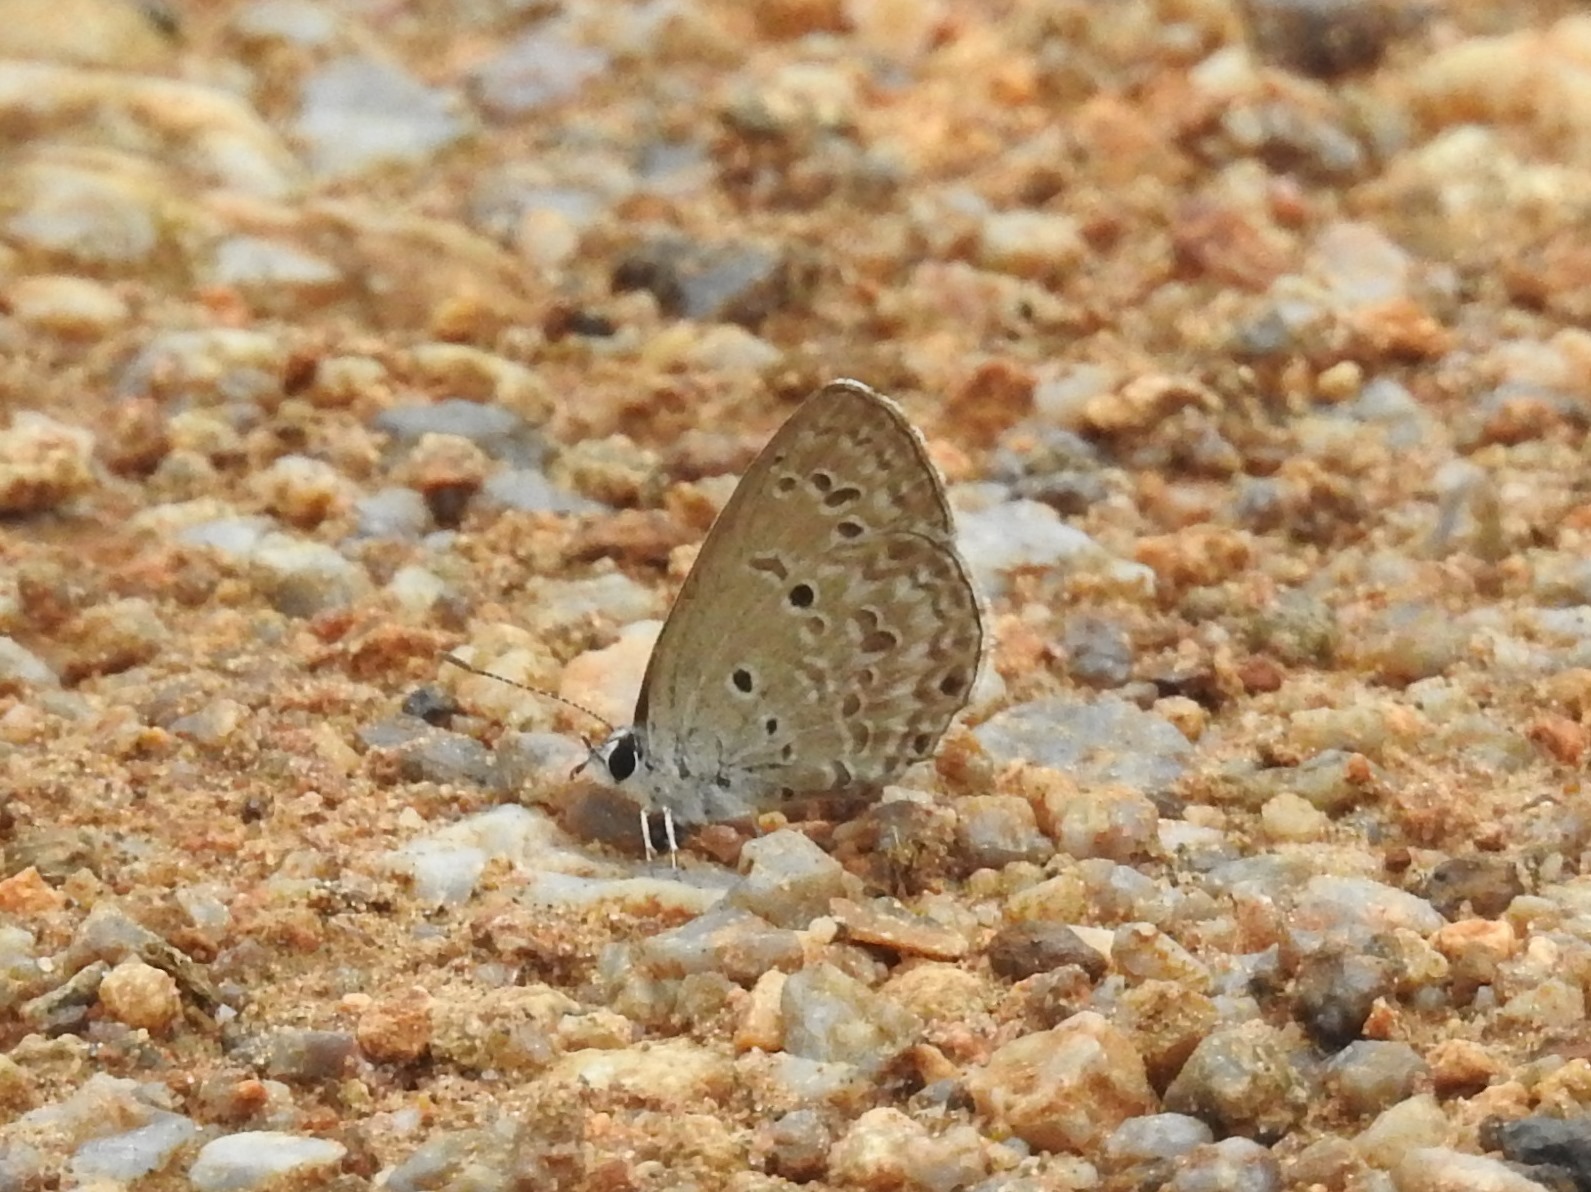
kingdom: Animalia
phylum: Arthropoda
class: Insecta
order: Lepidoptera
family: Lycaenidae
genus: Chilades
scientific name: Chilades laius
